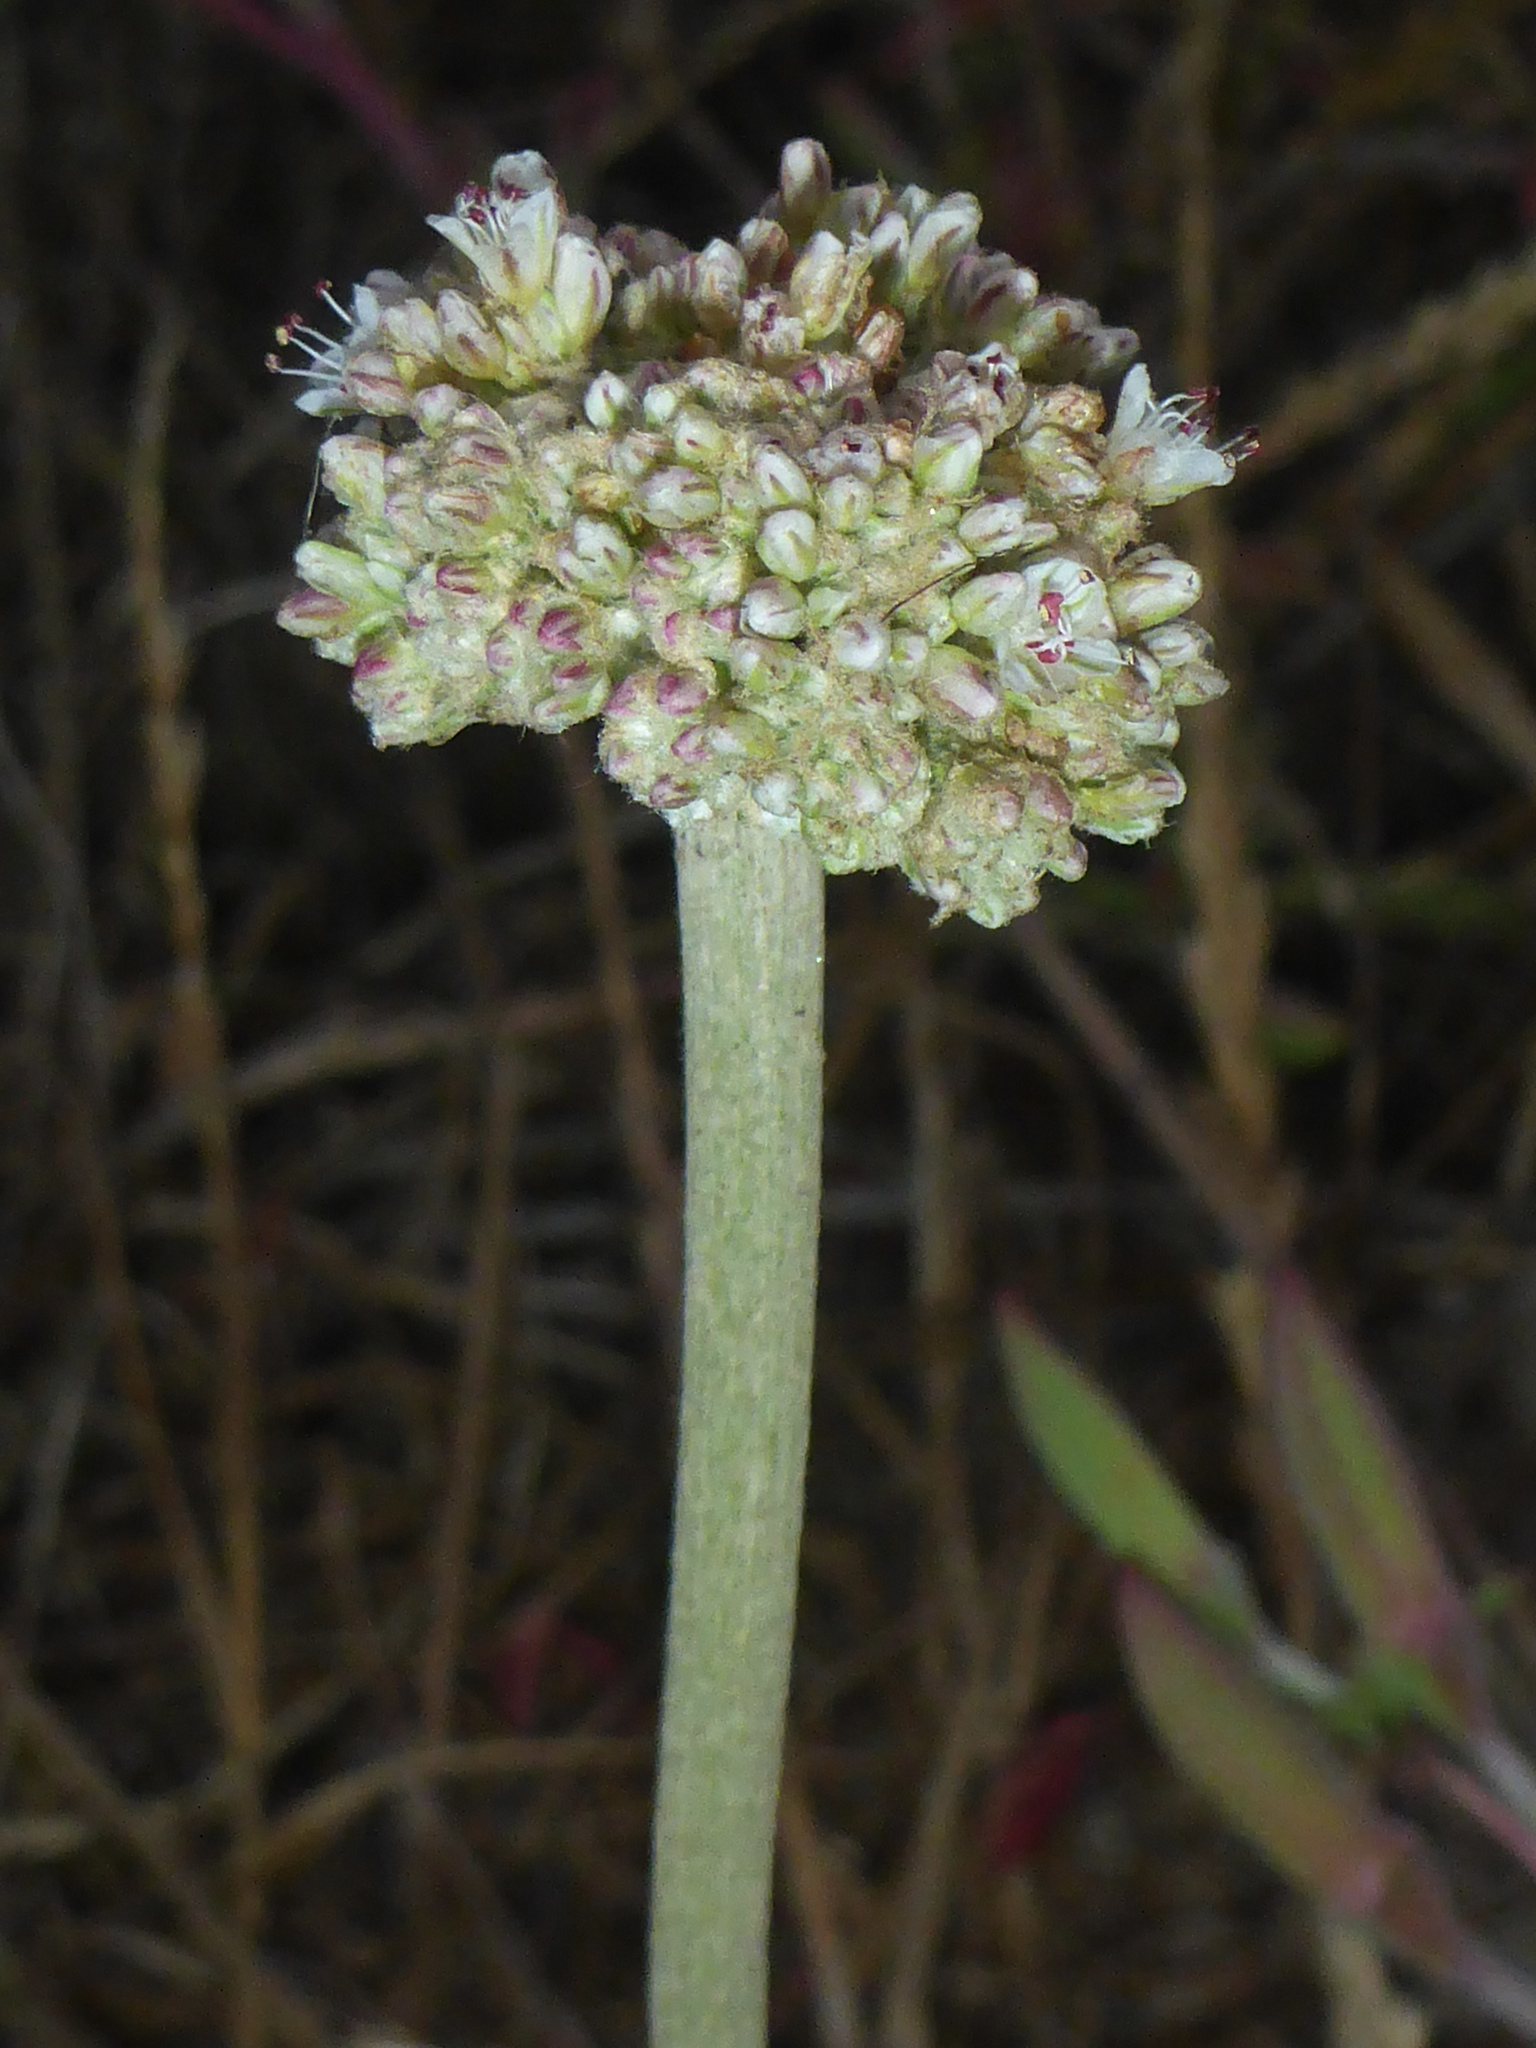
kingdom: Plantae
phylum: Tracheophyta
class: Magnoliopsida
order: Caryophyllales
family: Polygonaceae
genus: Eriogonum
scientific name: Eriogonum latifolium
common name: Seaside wild buckwheat
